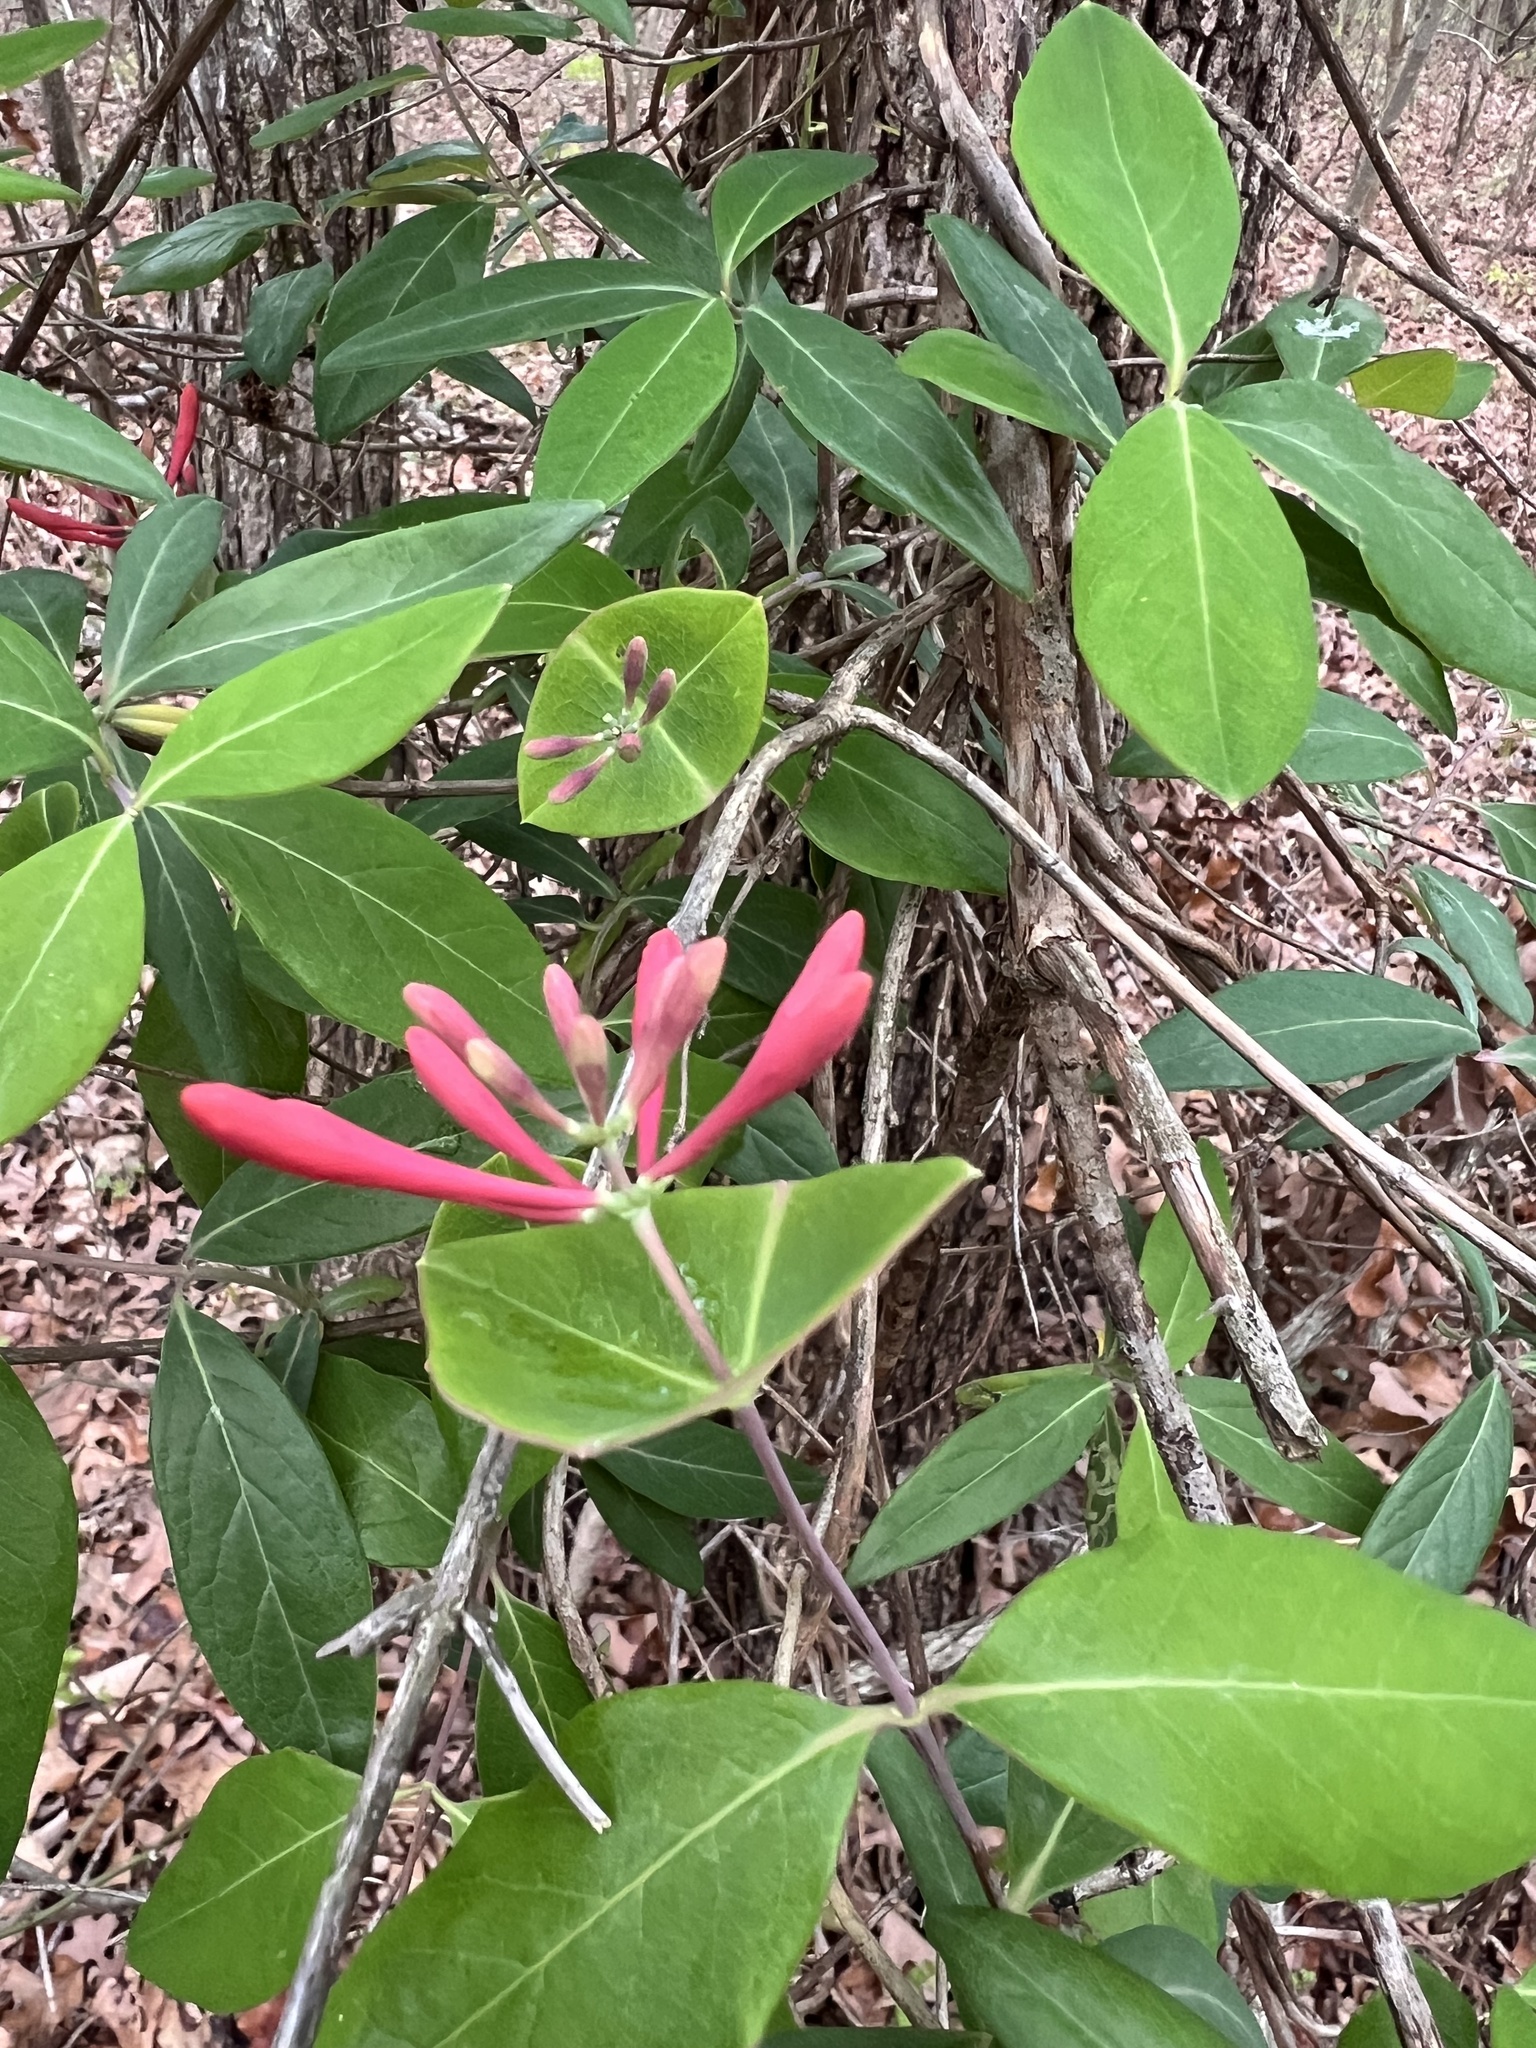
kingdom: Plantae
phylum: Tracheophyta
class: Magnoliopsida
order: Dipsacales
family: Caprifoliaceae
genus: Lonicera
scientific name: Lonicera sempervirens
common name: Coral honeysuckle
